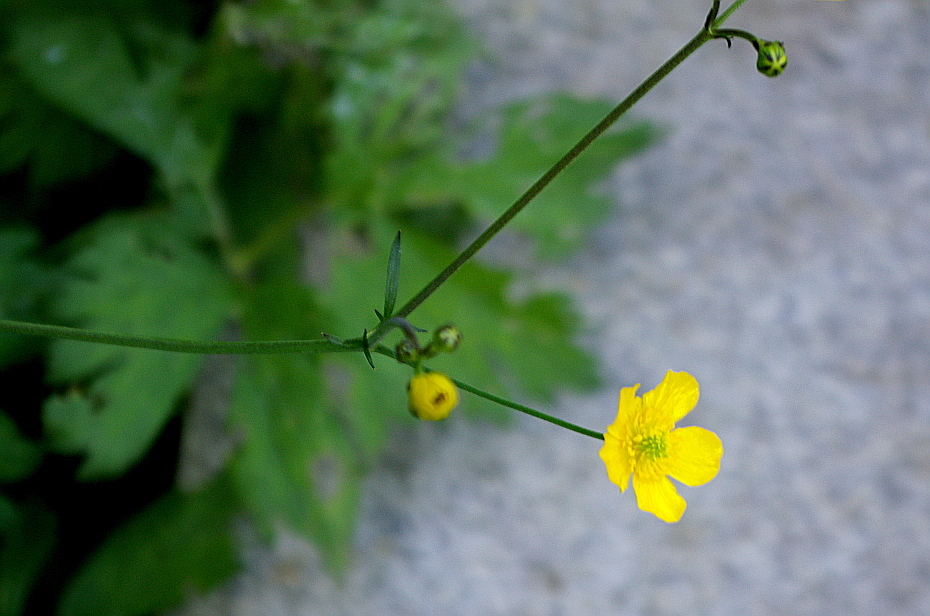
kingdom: Plantae
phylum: Tracheophyta
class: Magnoliopsida
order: Ranunculales
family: Ranunculaceae
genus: Ranunculus
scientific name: Ranunculus acris
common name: Meadow buttercup
